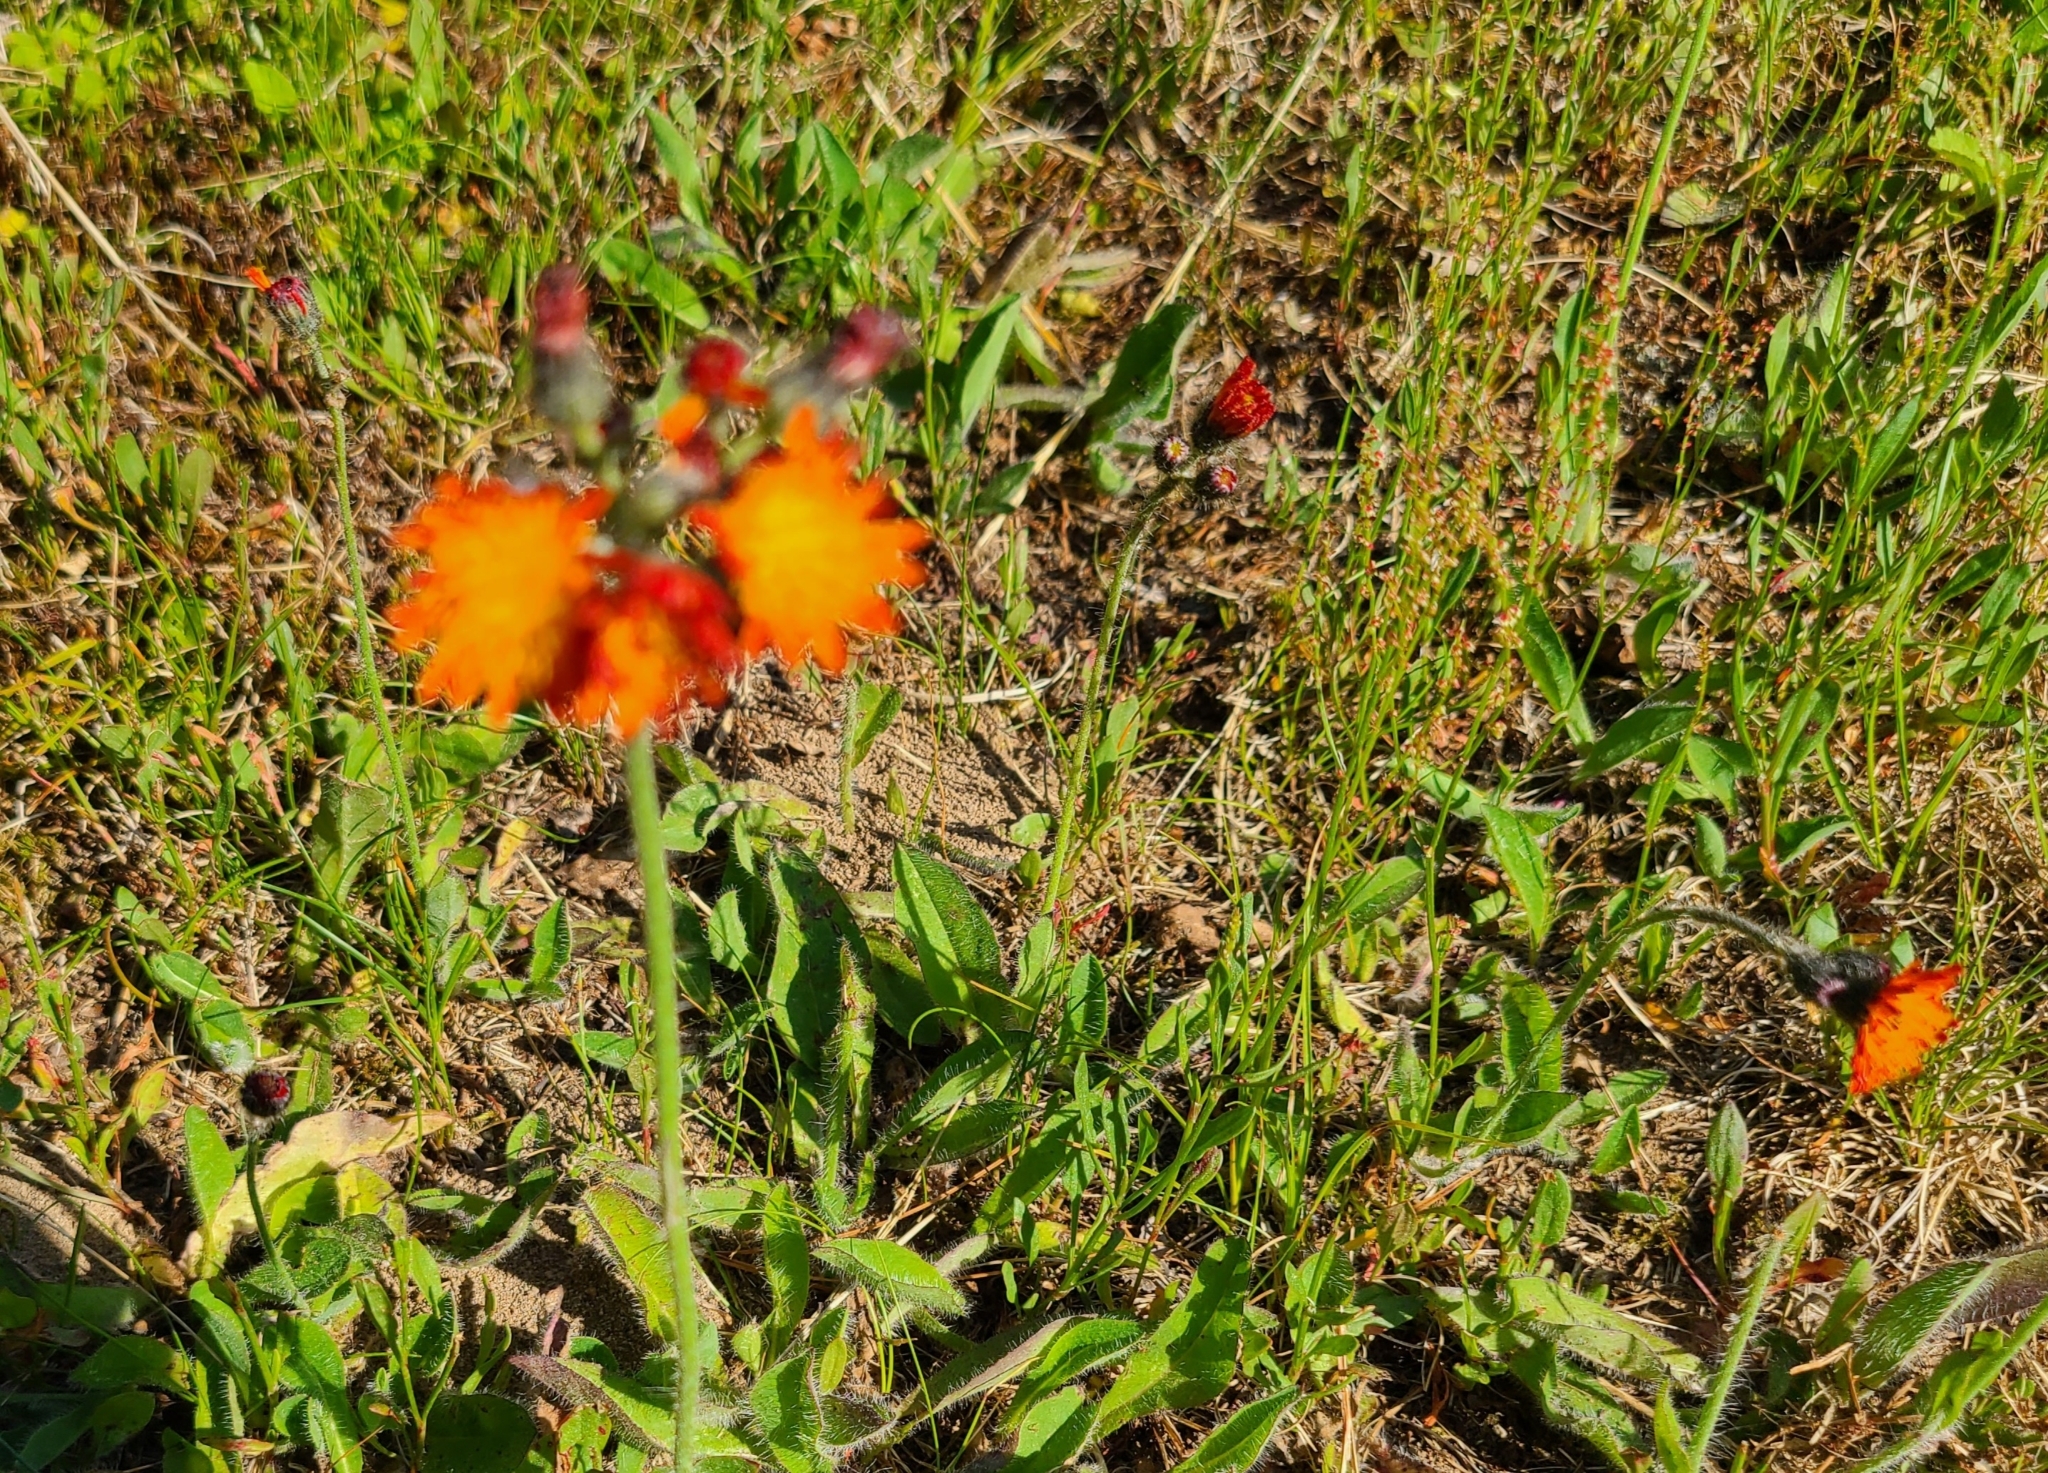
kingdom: Plantae
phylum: Tracheophyta
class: Magnoliopsida
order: Asterales
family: Asteraceae
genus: Pilosella
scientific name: Pilosella aurantiaca
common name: Fox-and-cubs
